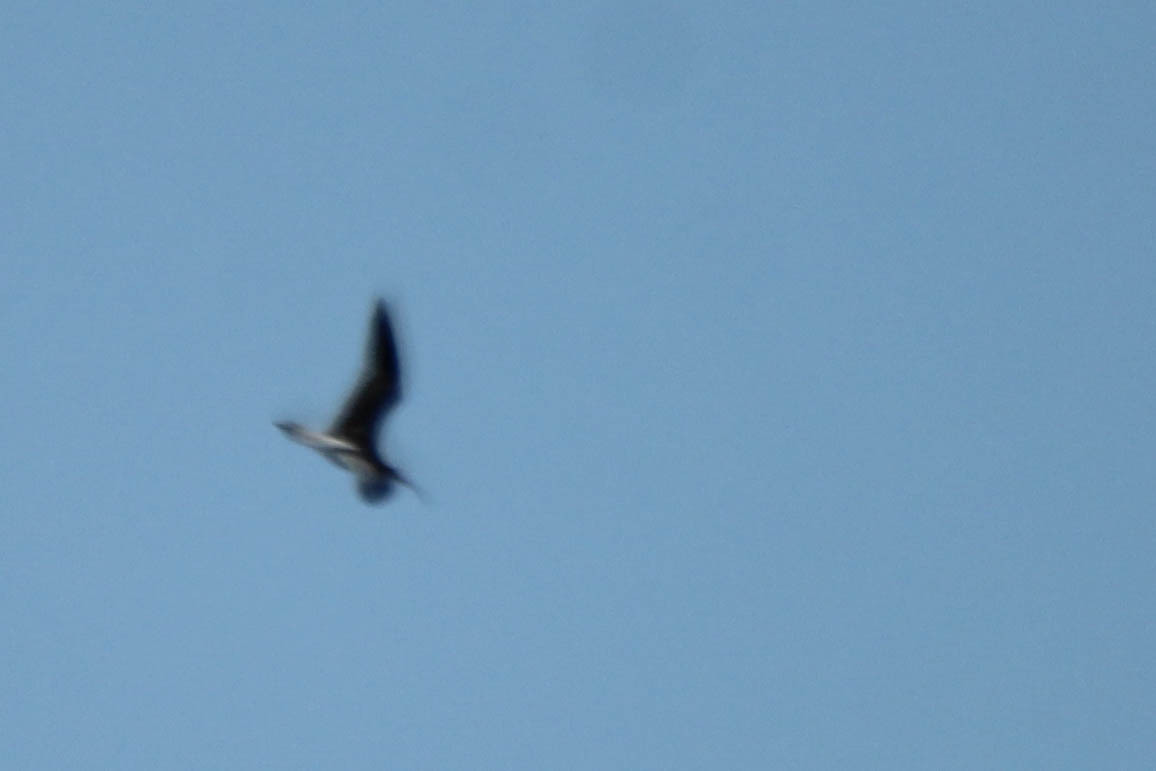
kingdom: Animalia
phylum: Chordata
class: Aves
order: Charadriiformes
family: Scolopacidae
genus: Numenius
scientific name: Numenius arquata
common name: Eurasian curlew
